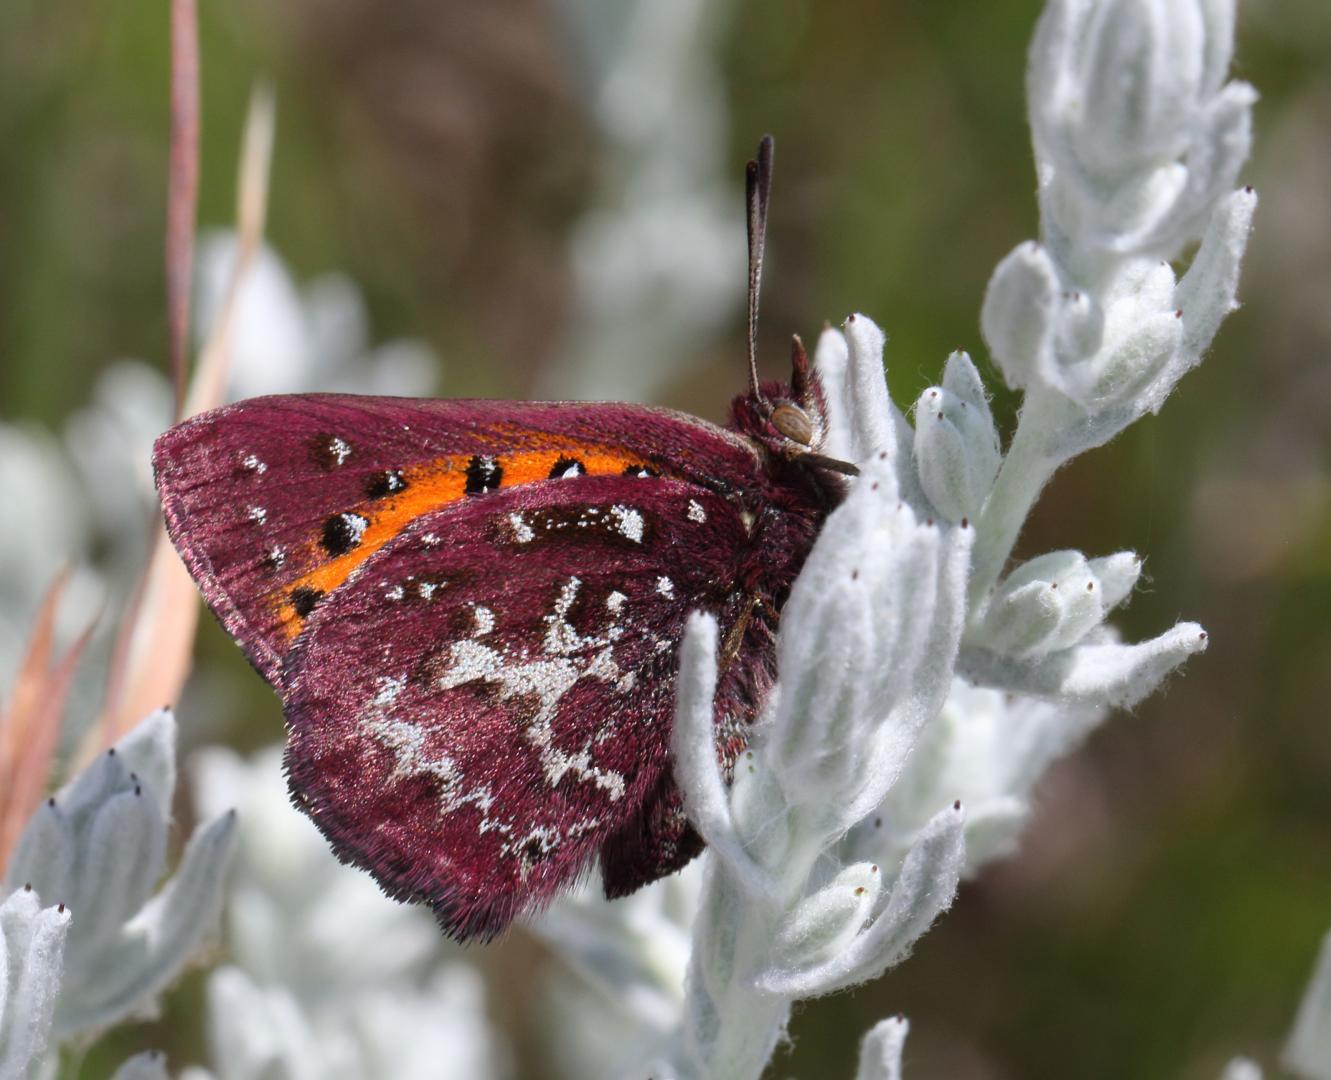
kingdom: Animalia
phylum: Arthropoda
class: Insecta
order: Lepidoptera
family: Lycaenidae
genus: Aloeides
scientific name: Aloeides penningtoni
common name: Pennington's copper
